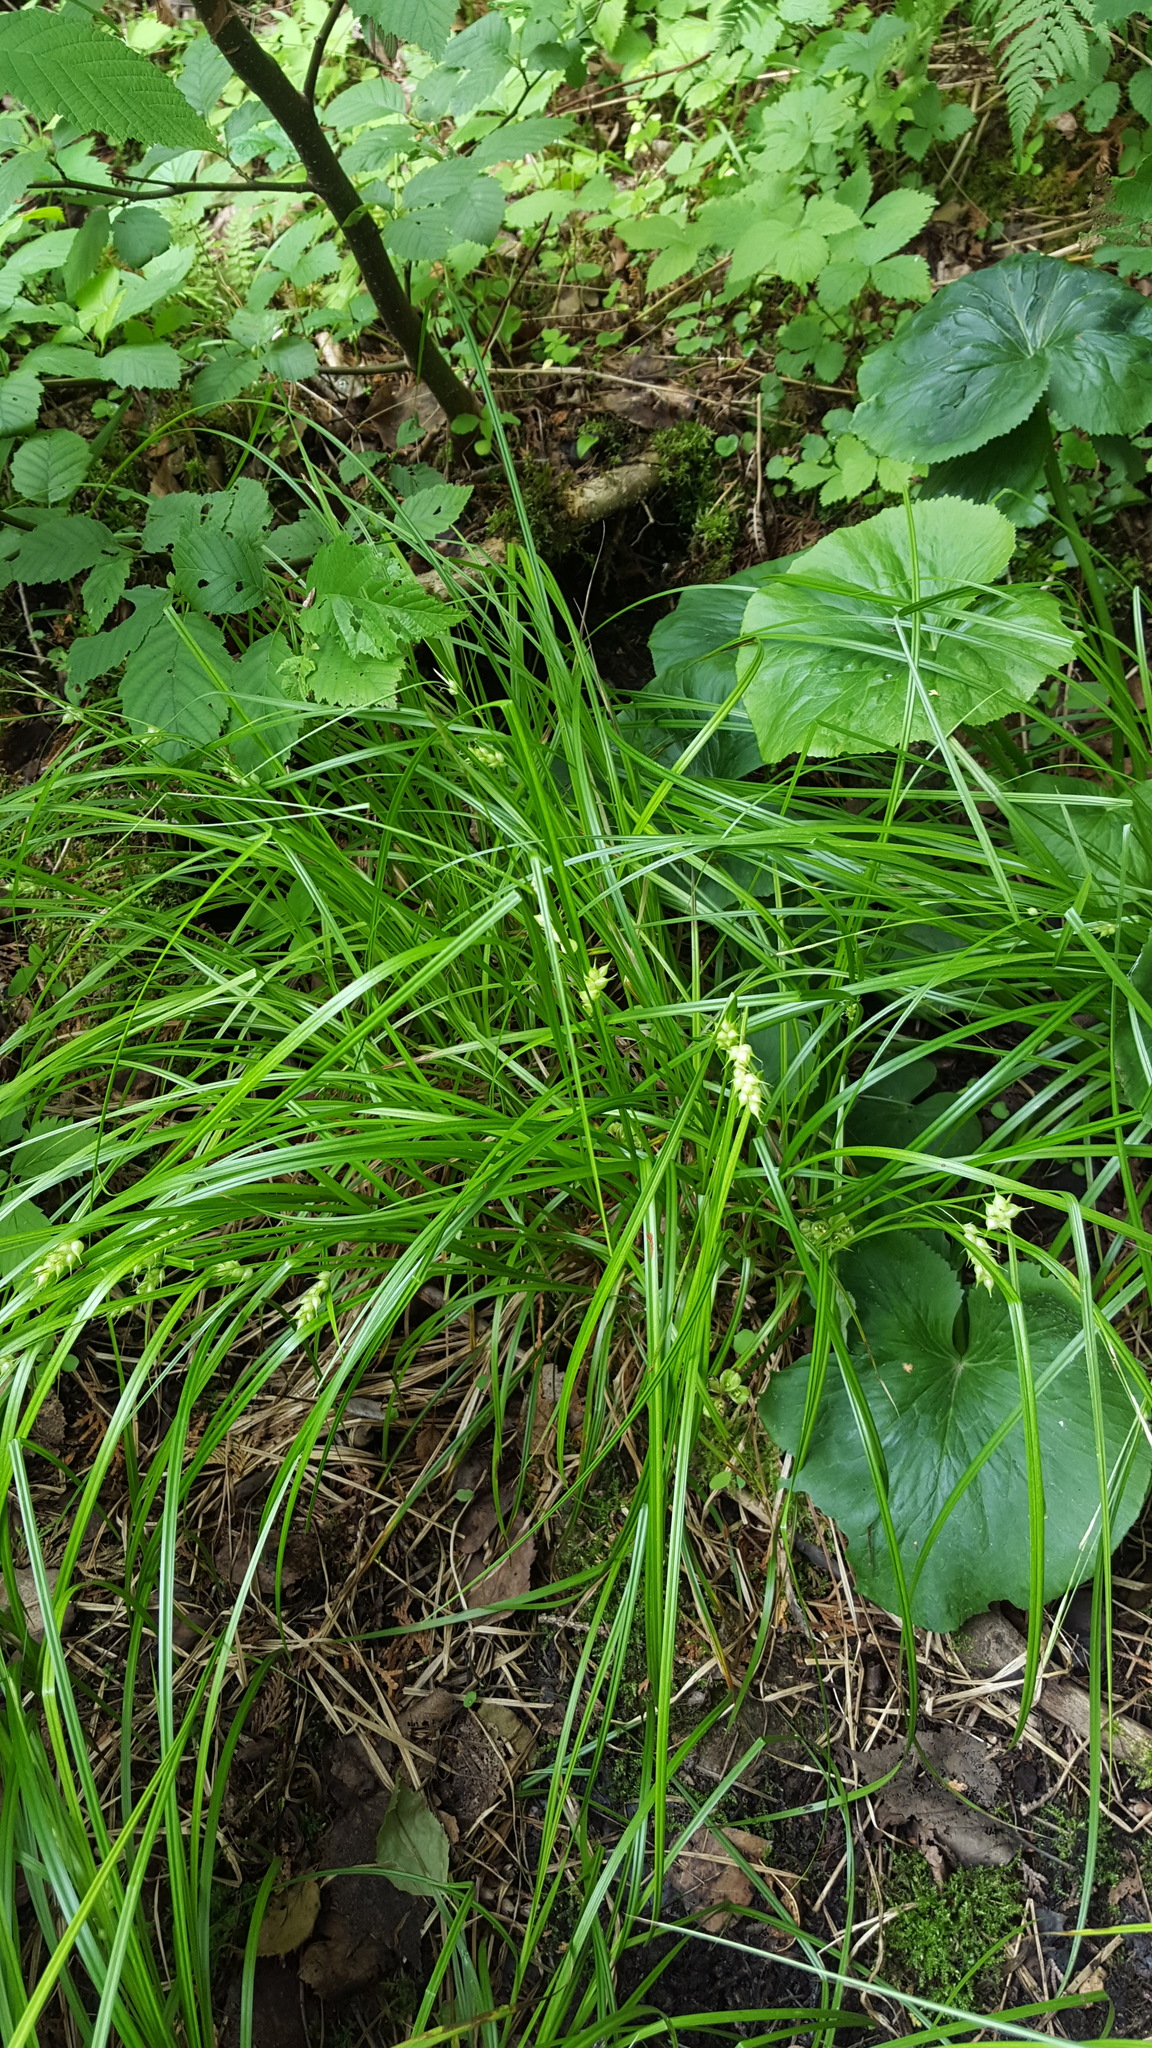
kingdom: Plantae
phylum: Tracheophyta
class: Liliopsida
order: Poales
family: Cyperaceae
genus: Carex
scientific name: Carex tuckermanii
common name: Tuckerman's sedge
